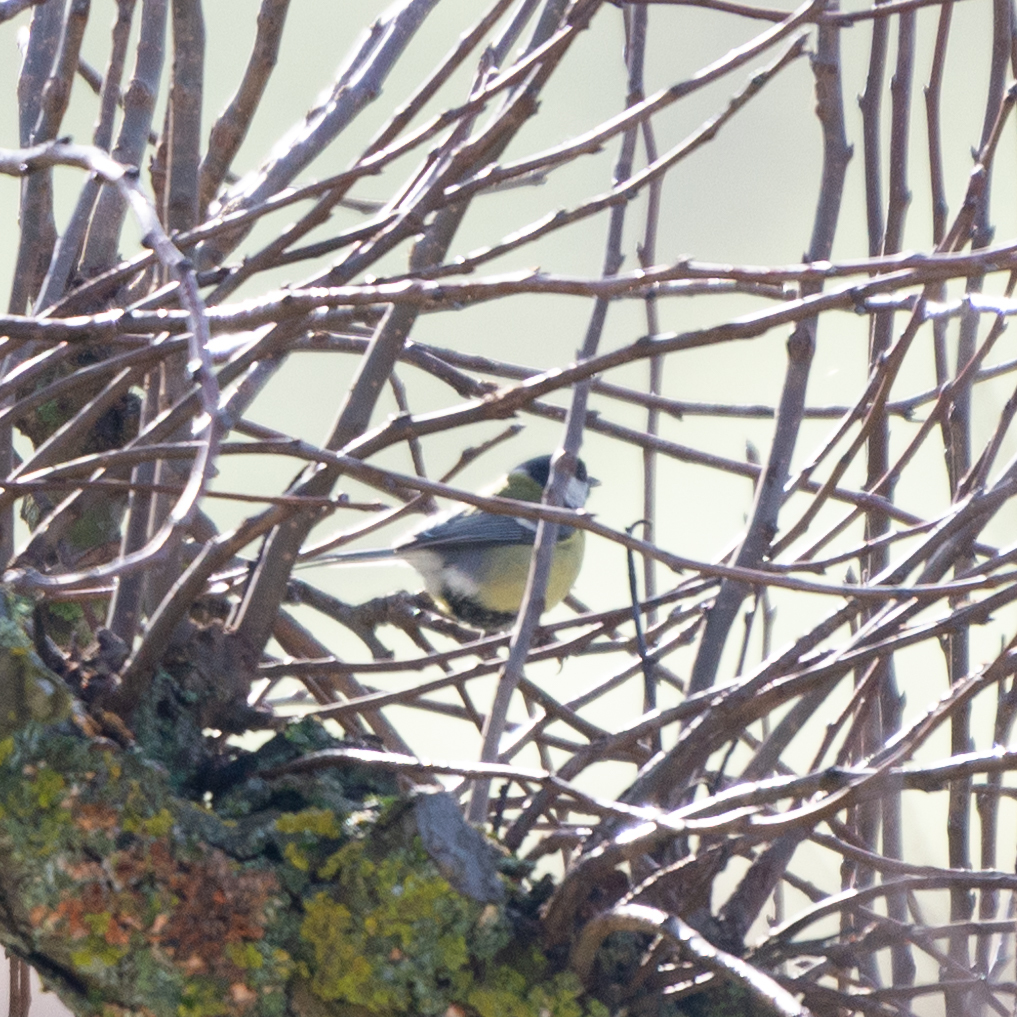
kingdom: Animalia
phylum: Chordata
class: Aves
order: Passeriformes
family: Paridae
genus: Parus
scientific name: Parus major
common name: Great tit
